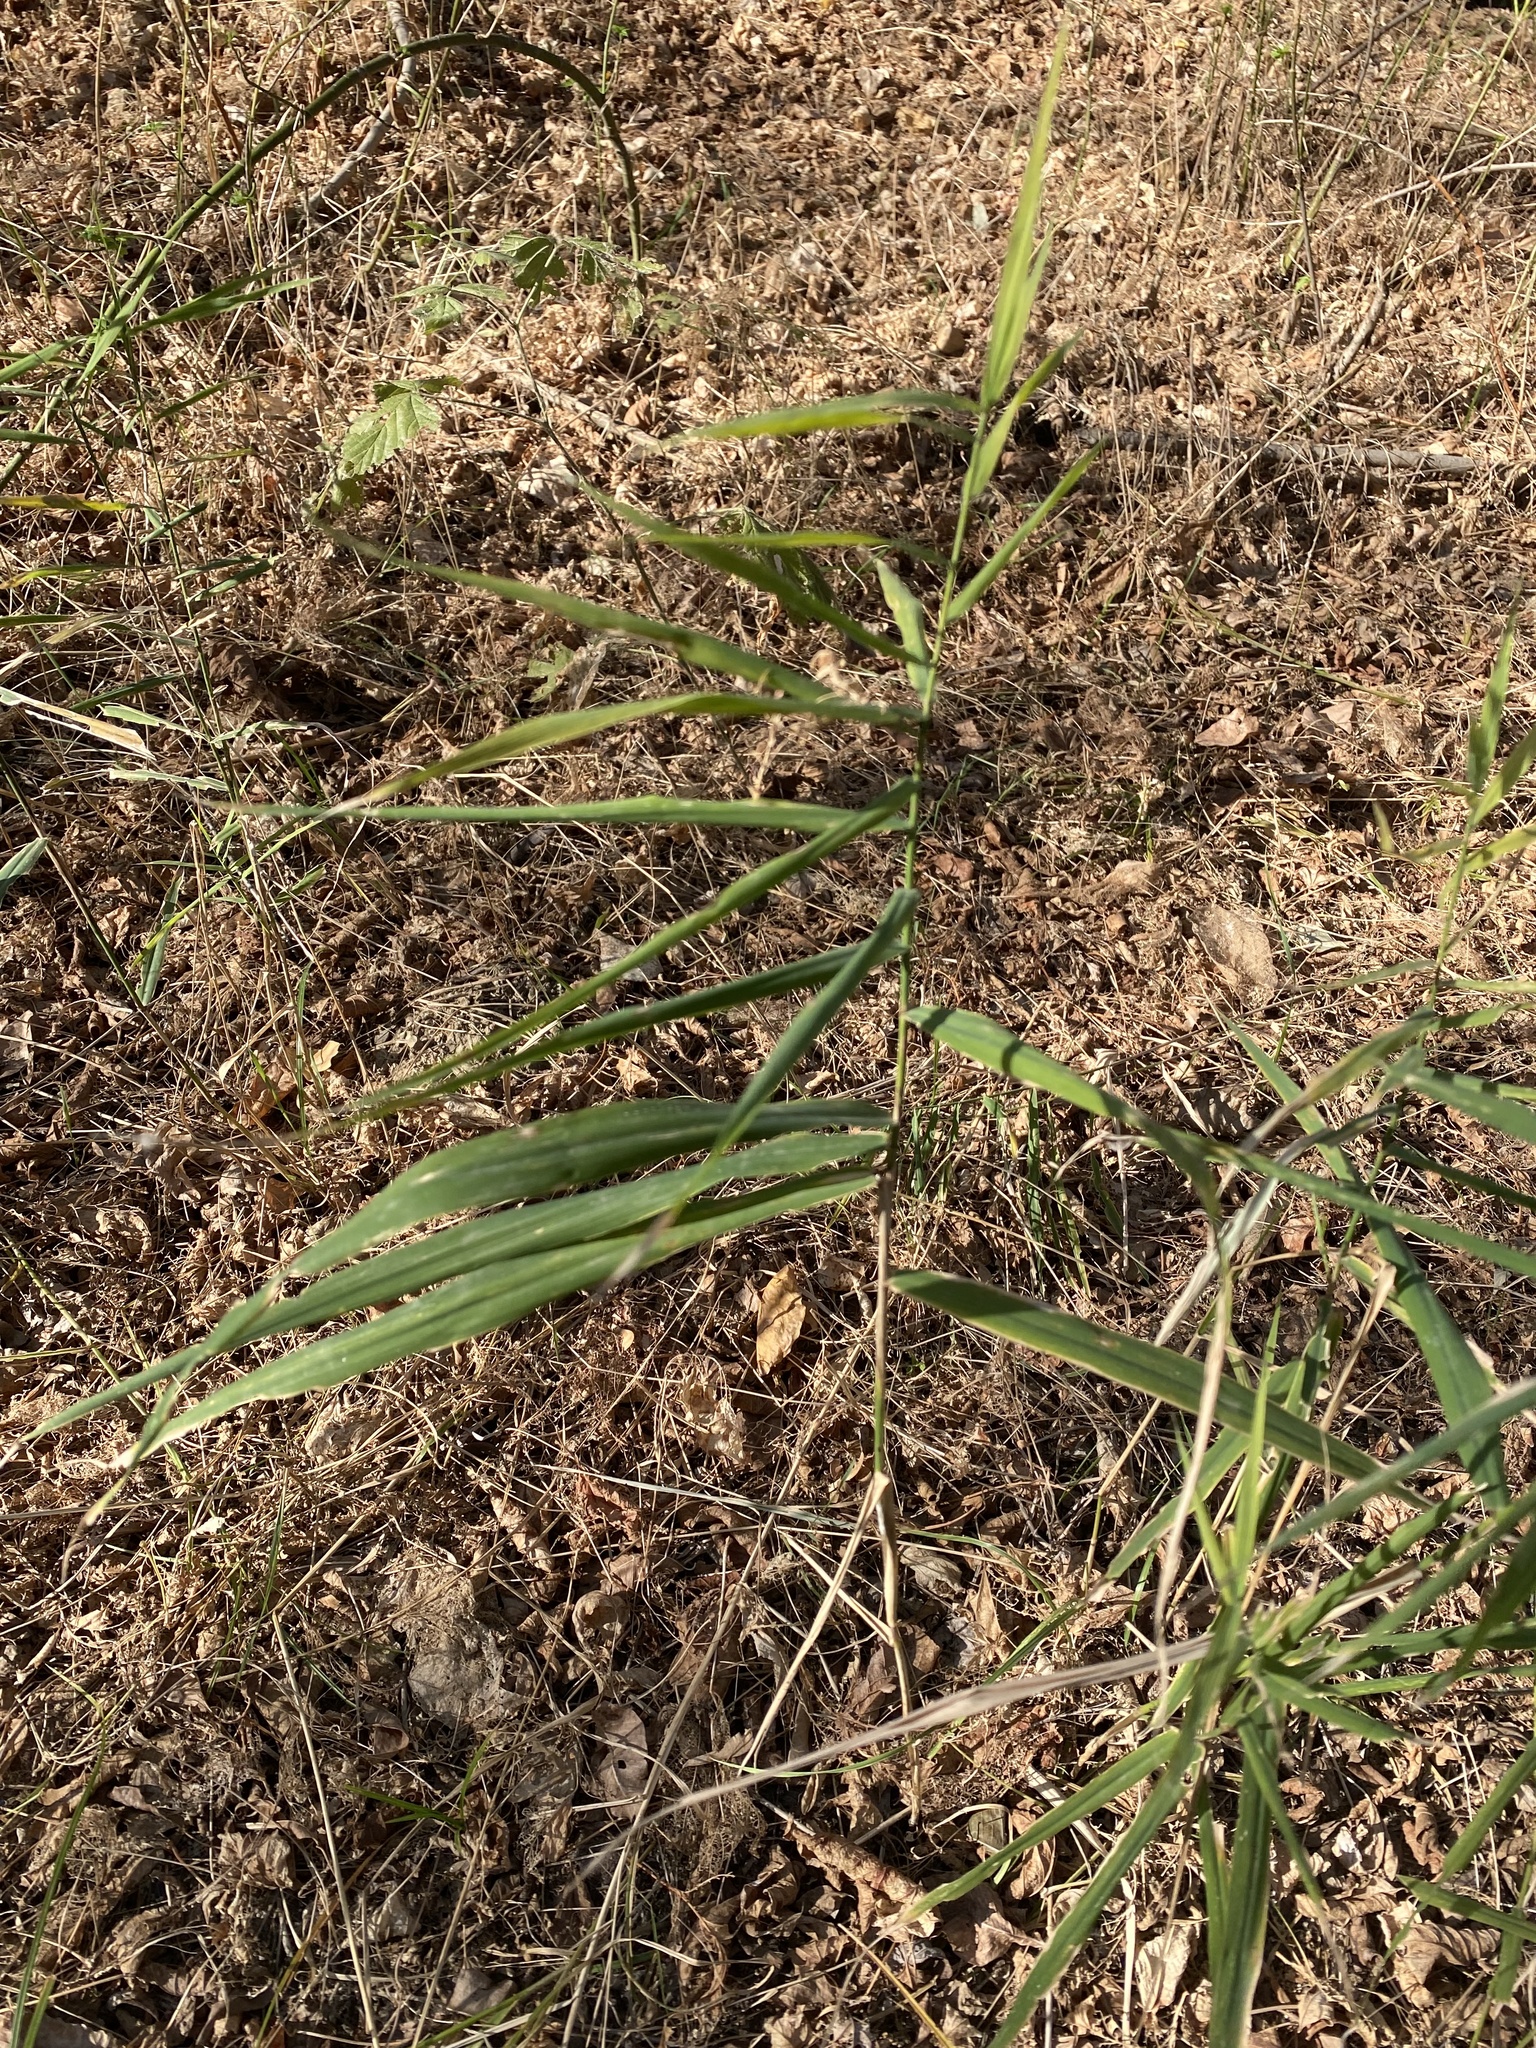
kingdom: Plantae
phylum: Tracheophyta
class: Liliopsida
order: Poales
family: Poaceae
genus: Phragmites
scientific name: Phragmites australis
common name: Common reed
